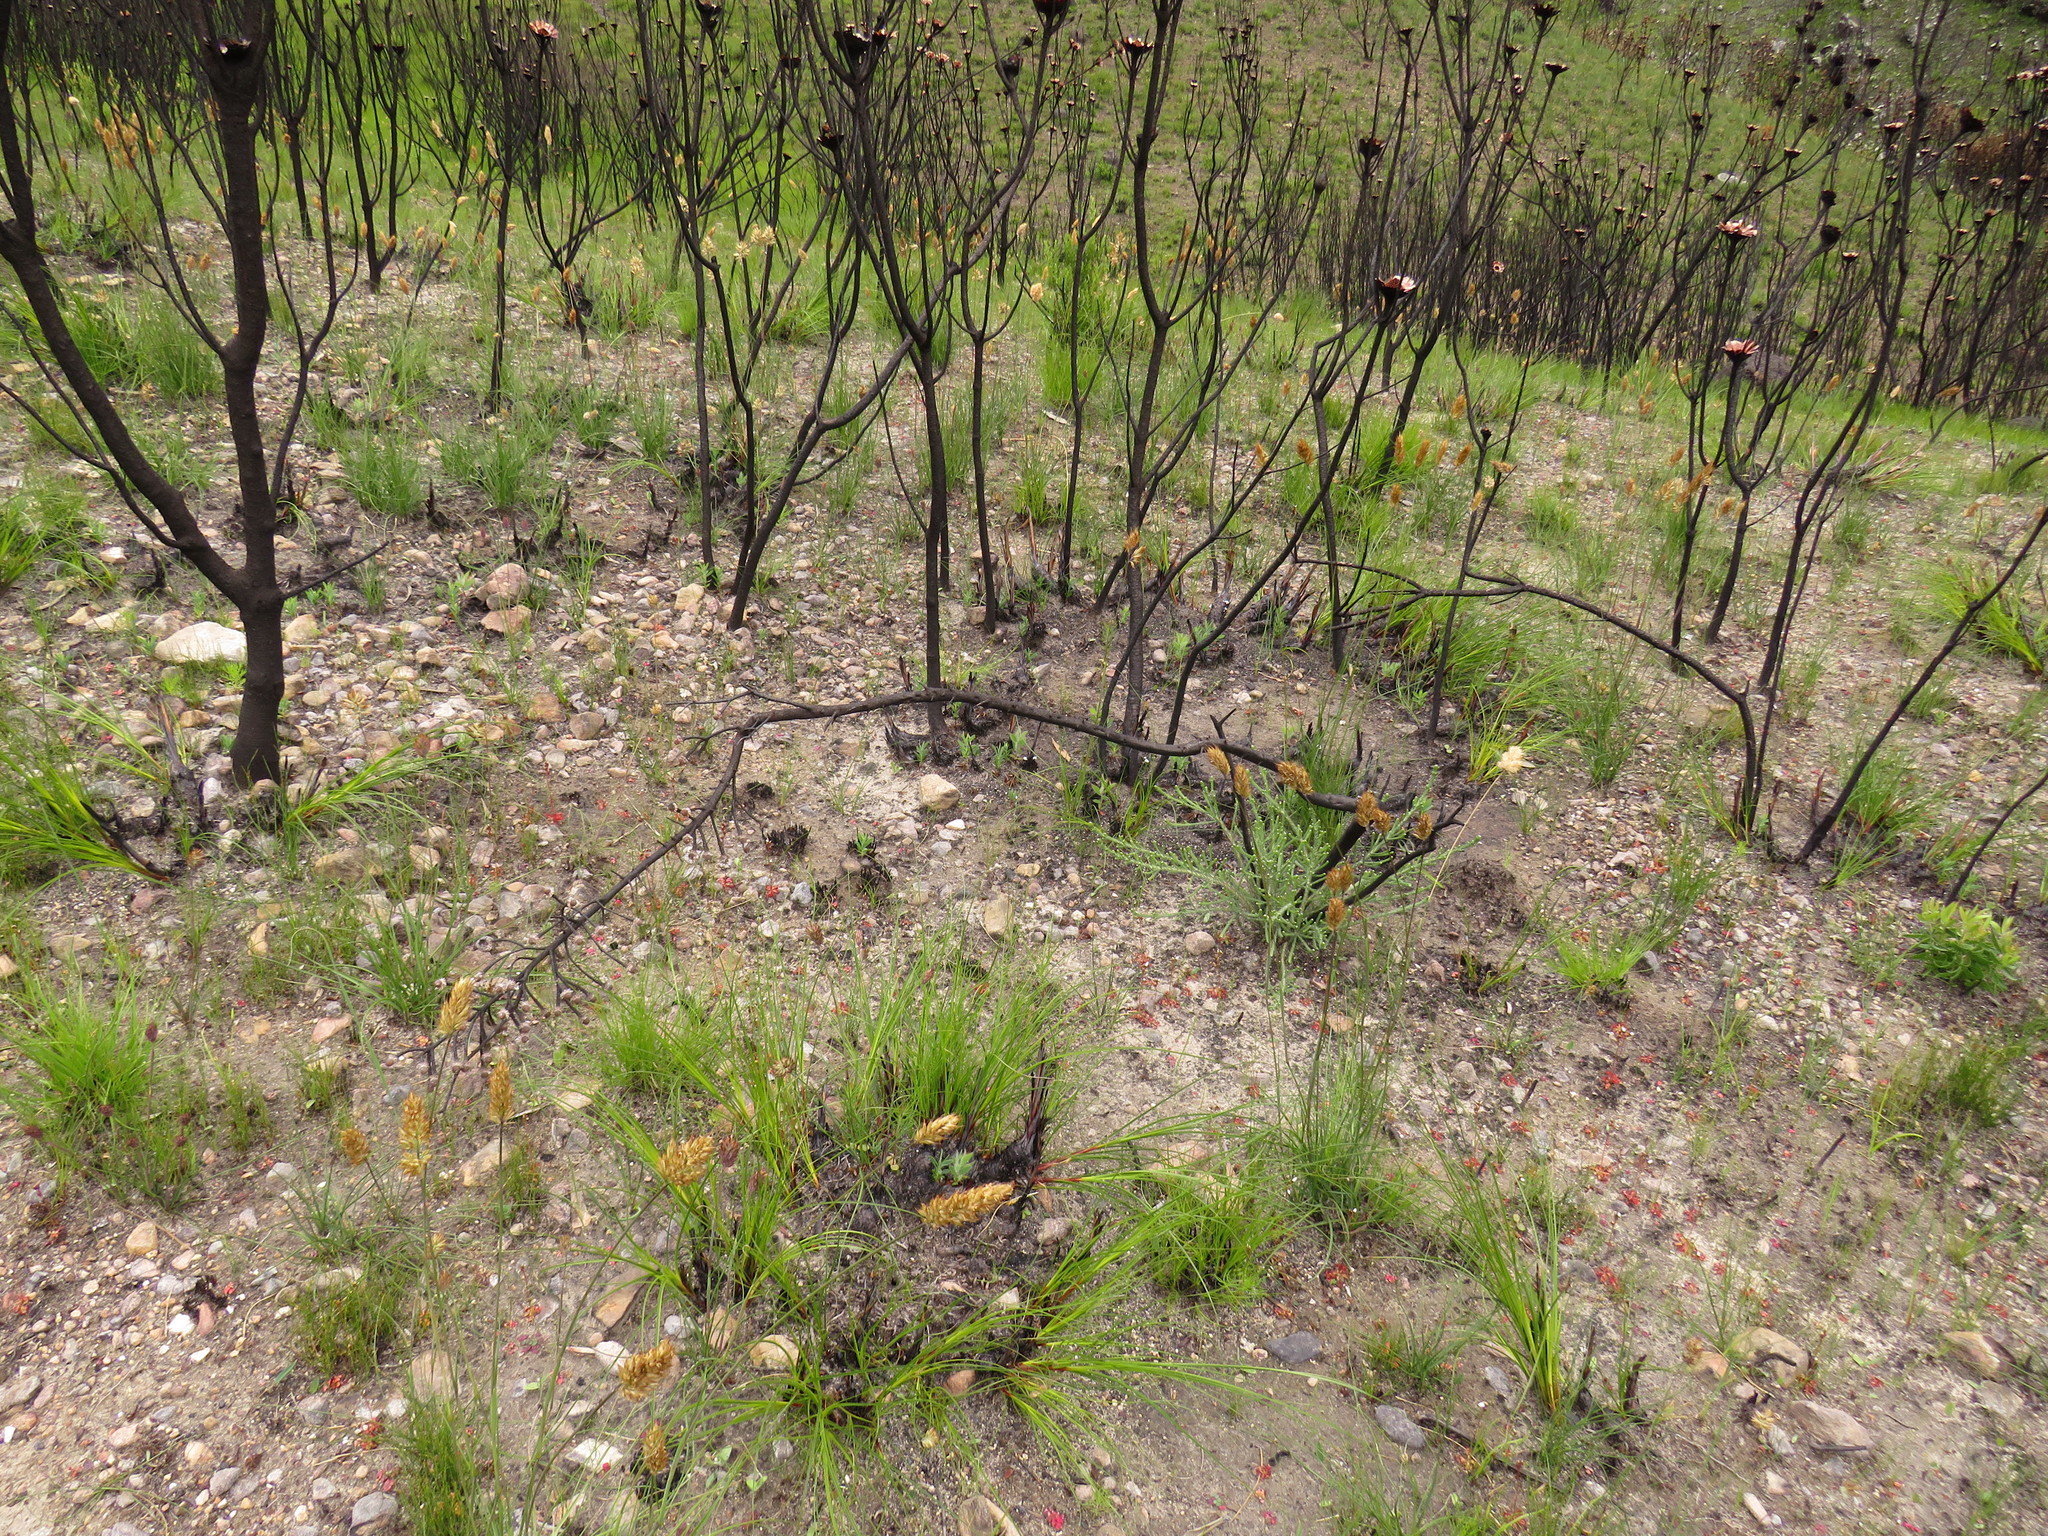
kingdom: Plantae
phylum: Tracheophyta
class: Magnoliopsida
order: Bruniales
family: Bruniaceae
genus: Brunia
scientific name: Brunia noduliflora
